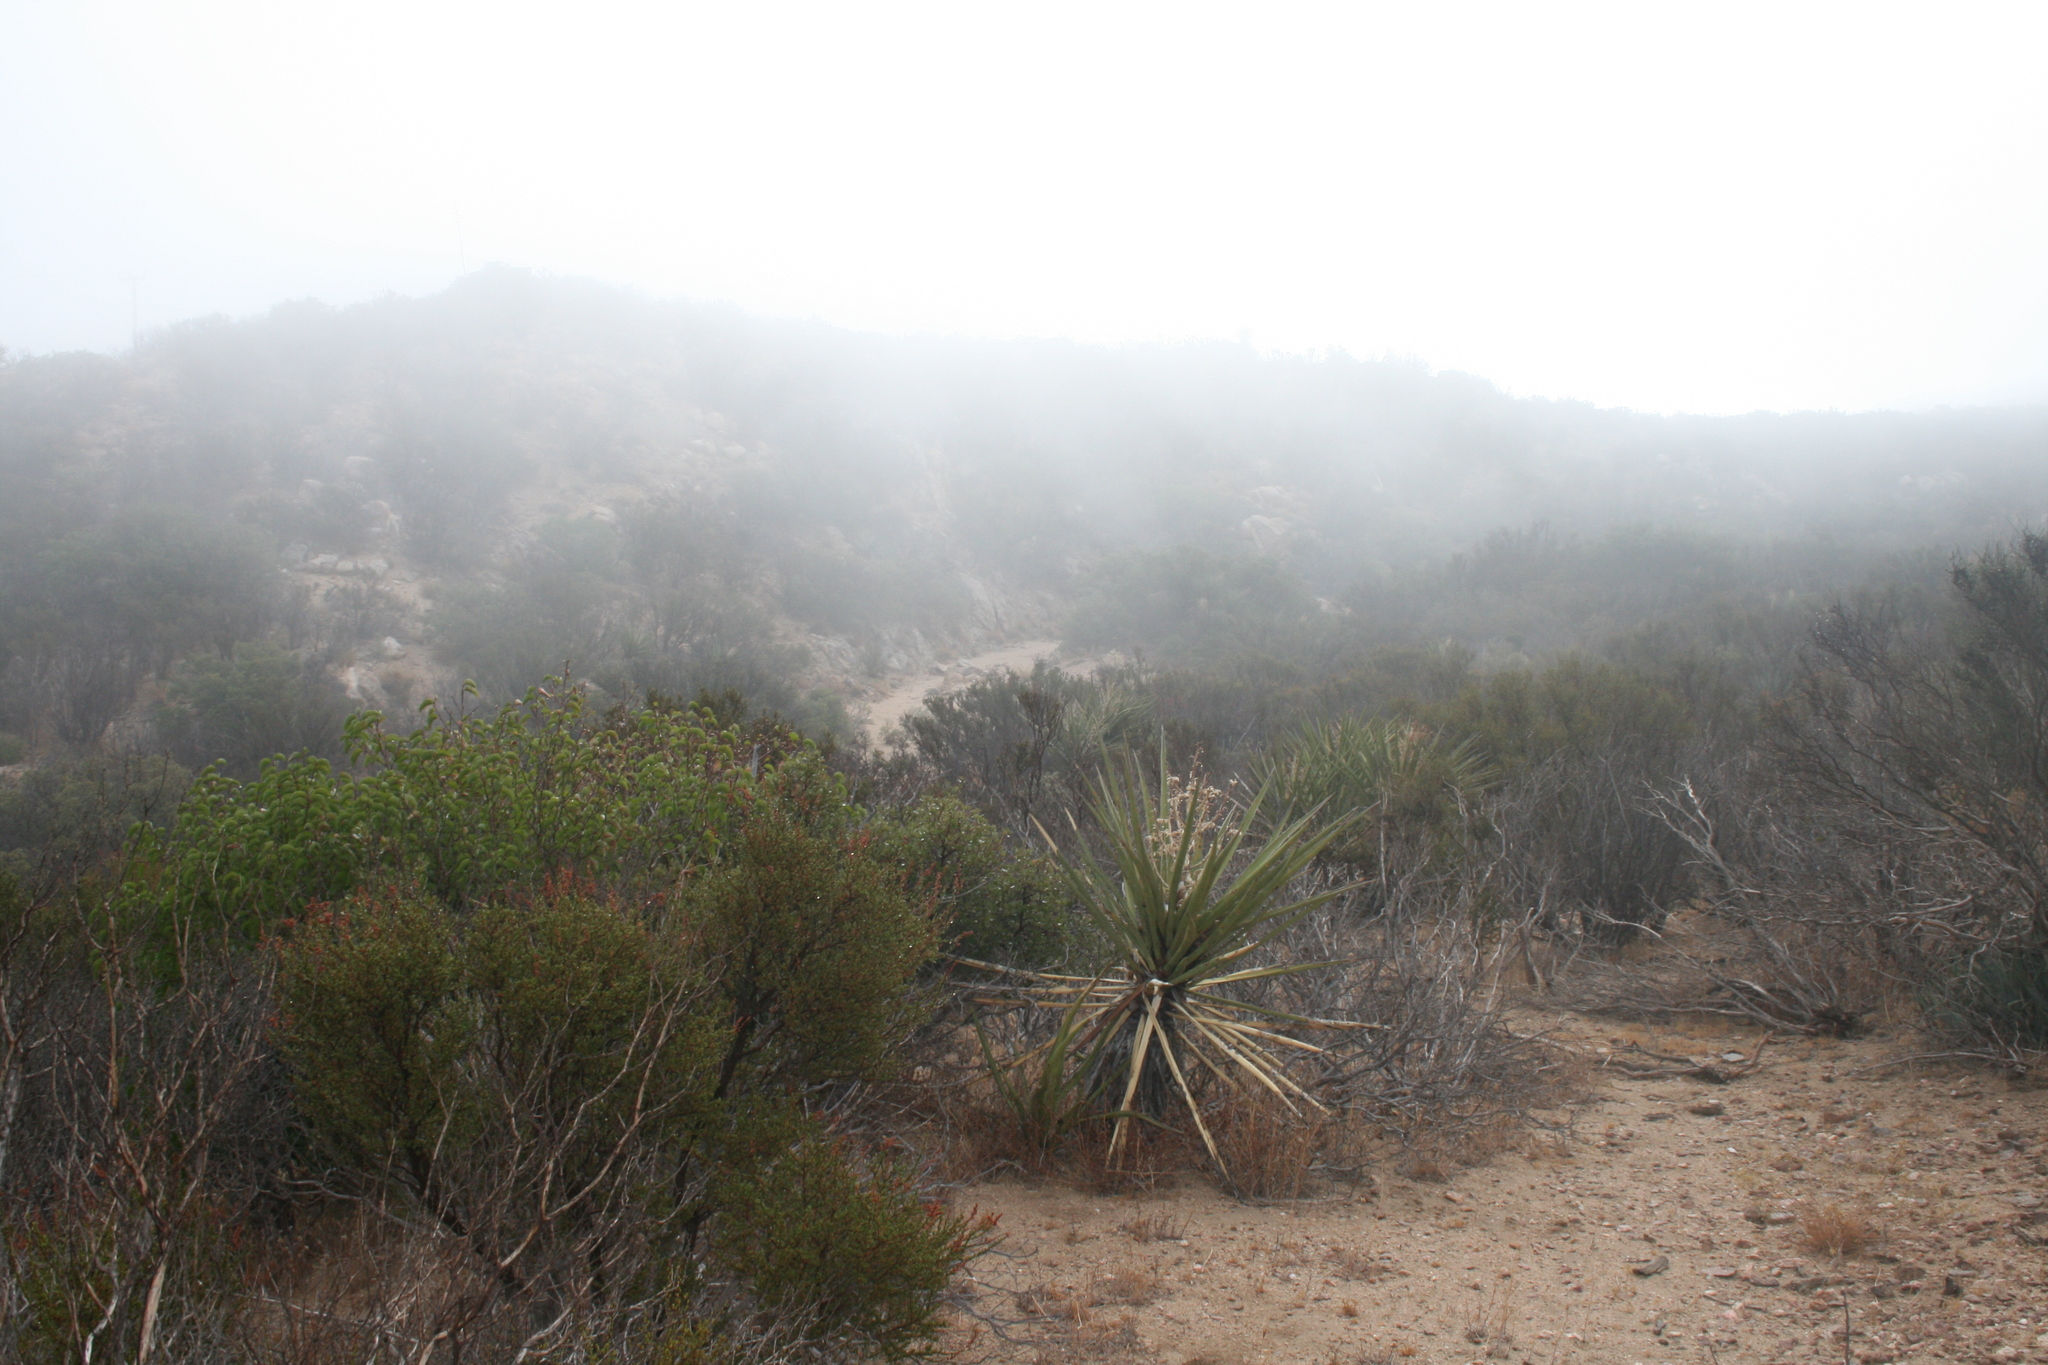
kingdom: Plantae
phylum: Tracheophyta
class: Liliopsida
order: Asparagales
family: Asparagaceae
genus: Yucca
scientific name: Yucca schidigera
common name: Mojave yucca
